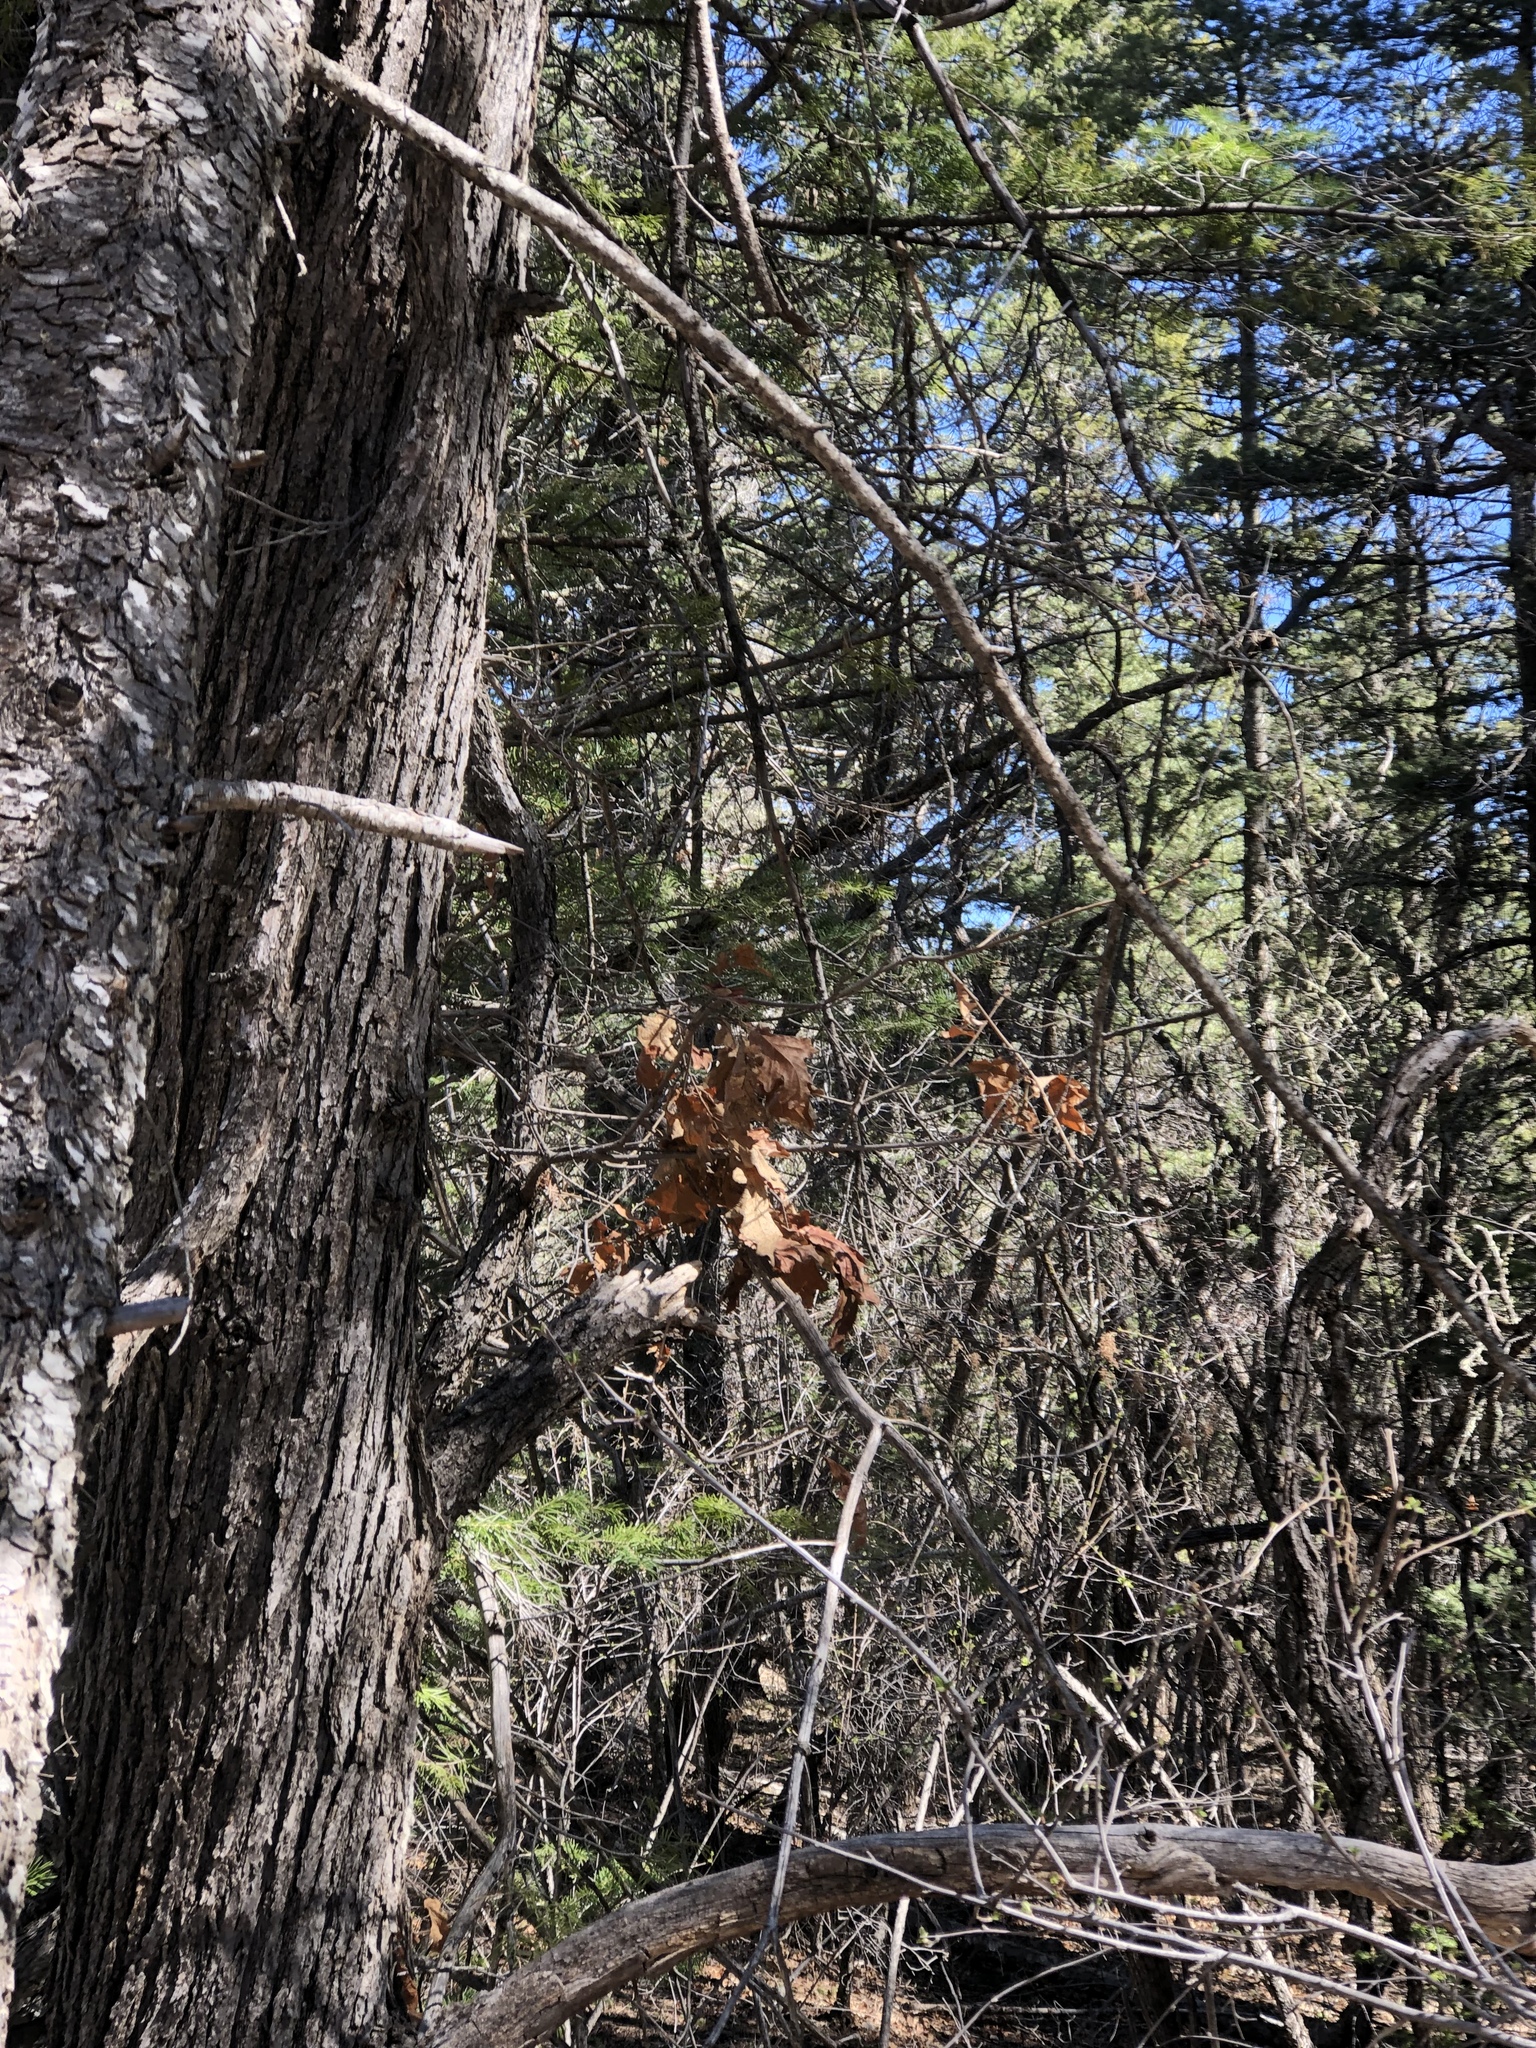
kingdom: Plantae
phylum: Tracheophyta
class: Magnoliopsida
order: Fagales
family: Fagaceae
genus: Quercus
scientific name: Quercus gambelii
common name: Gambel oak
